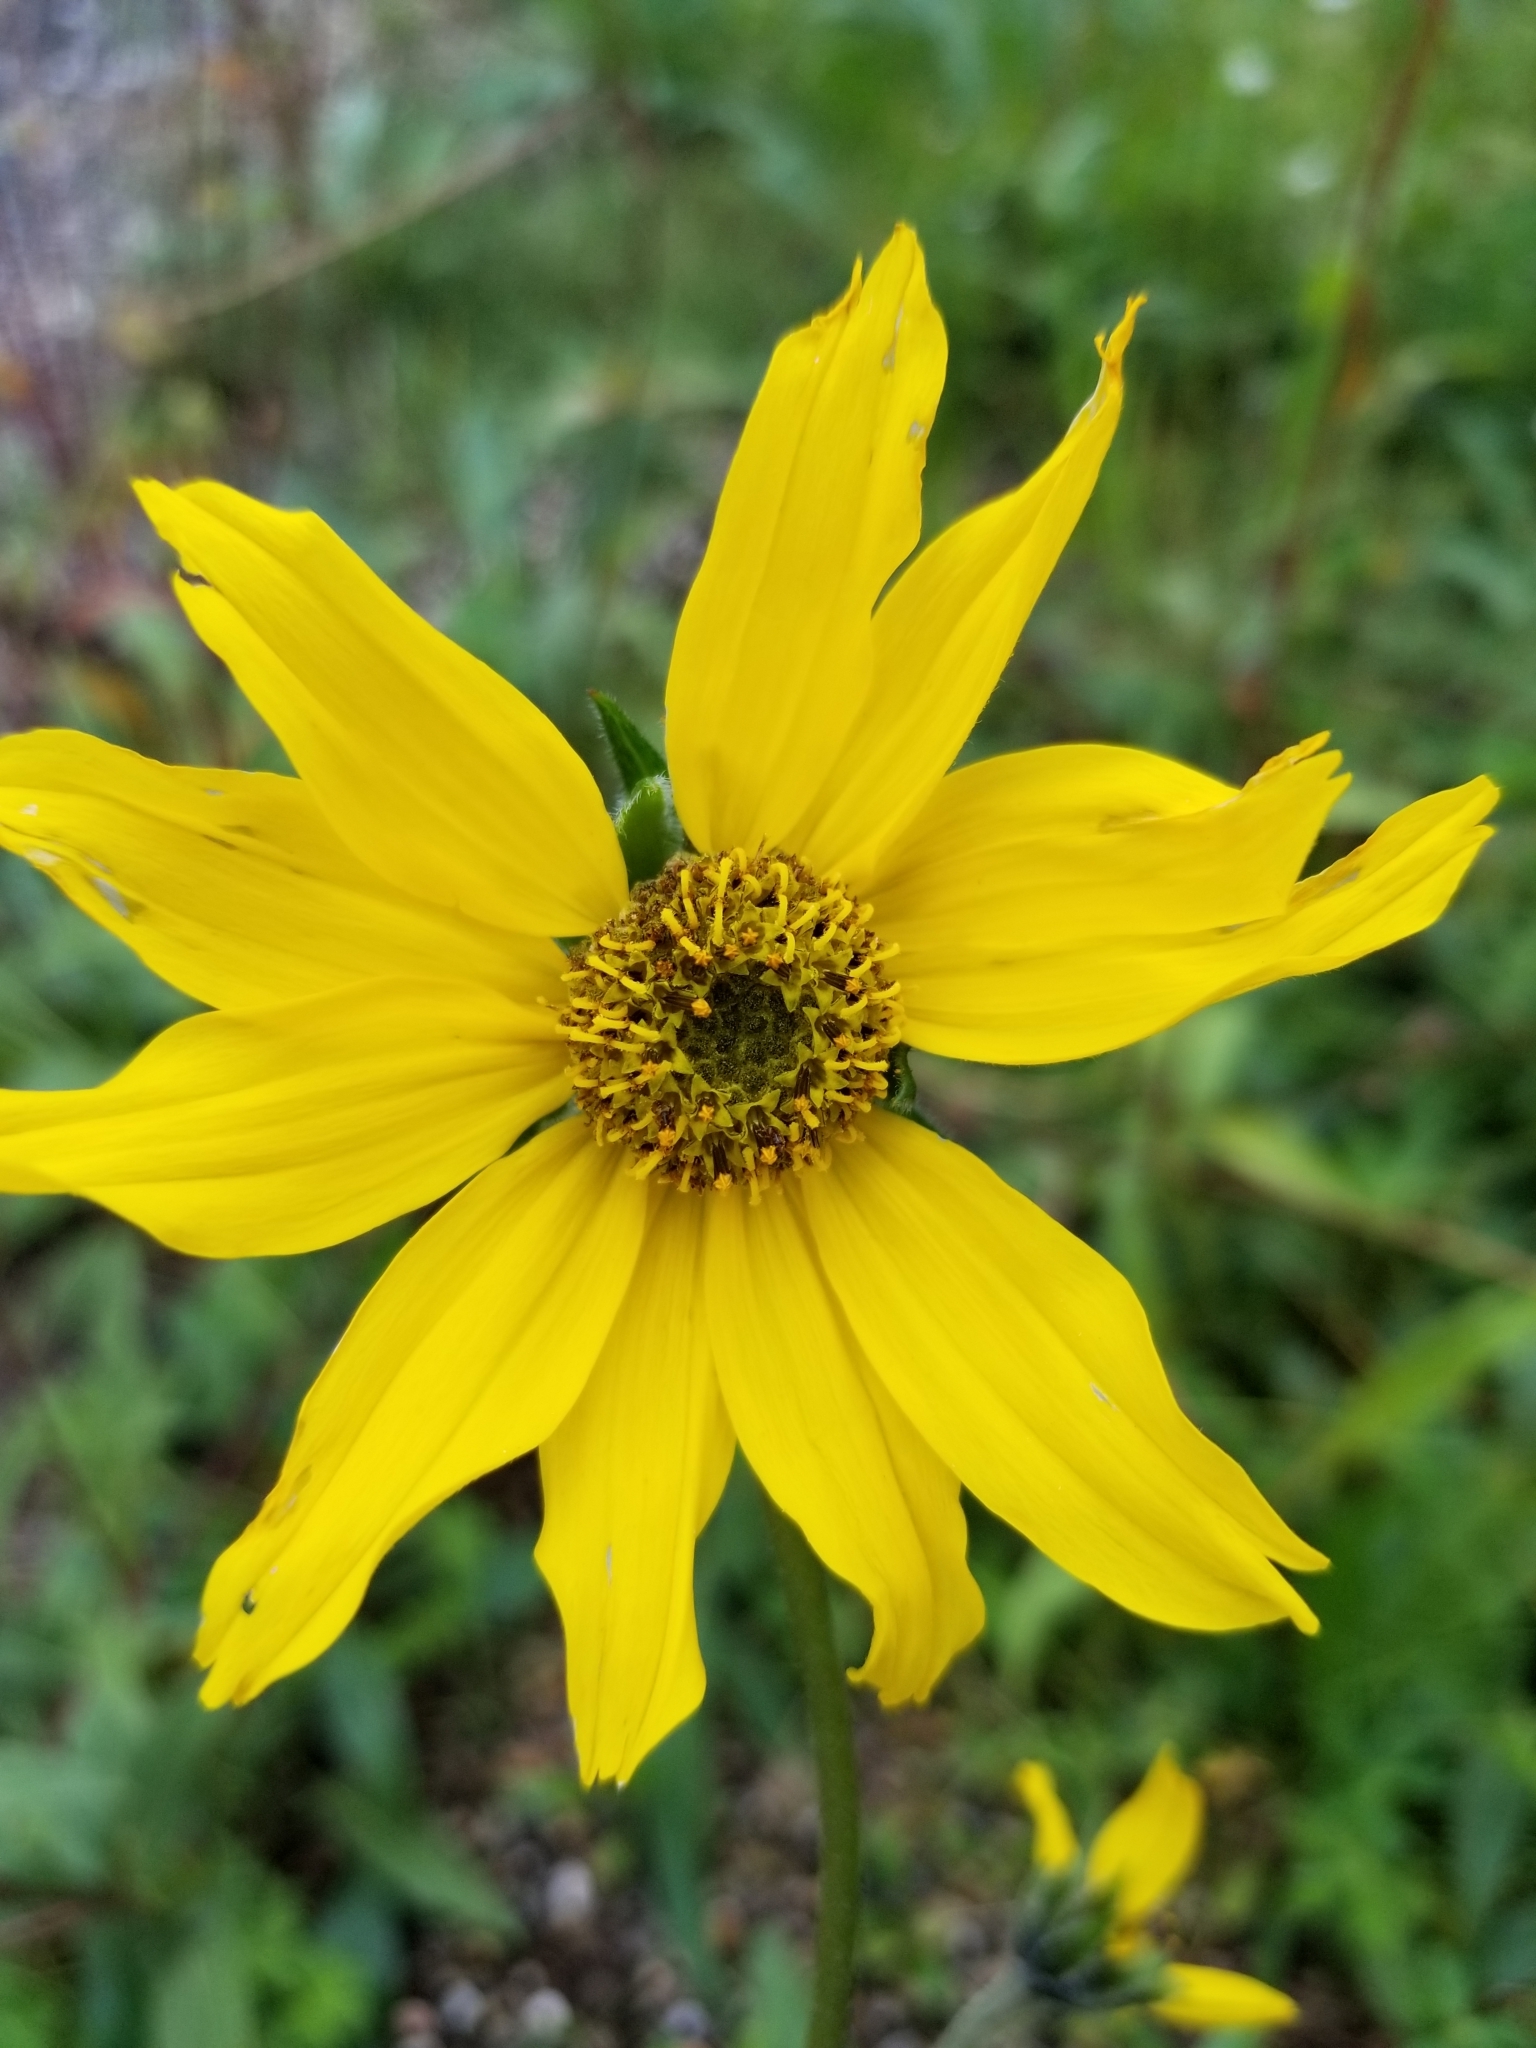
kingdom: Plantae
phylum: Tracheophyta
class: Magnoliopsida
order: Asterales
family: Asteraceae
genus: Heliomeris
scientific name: Heliomeris multiflora
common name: Showy goldeneye
